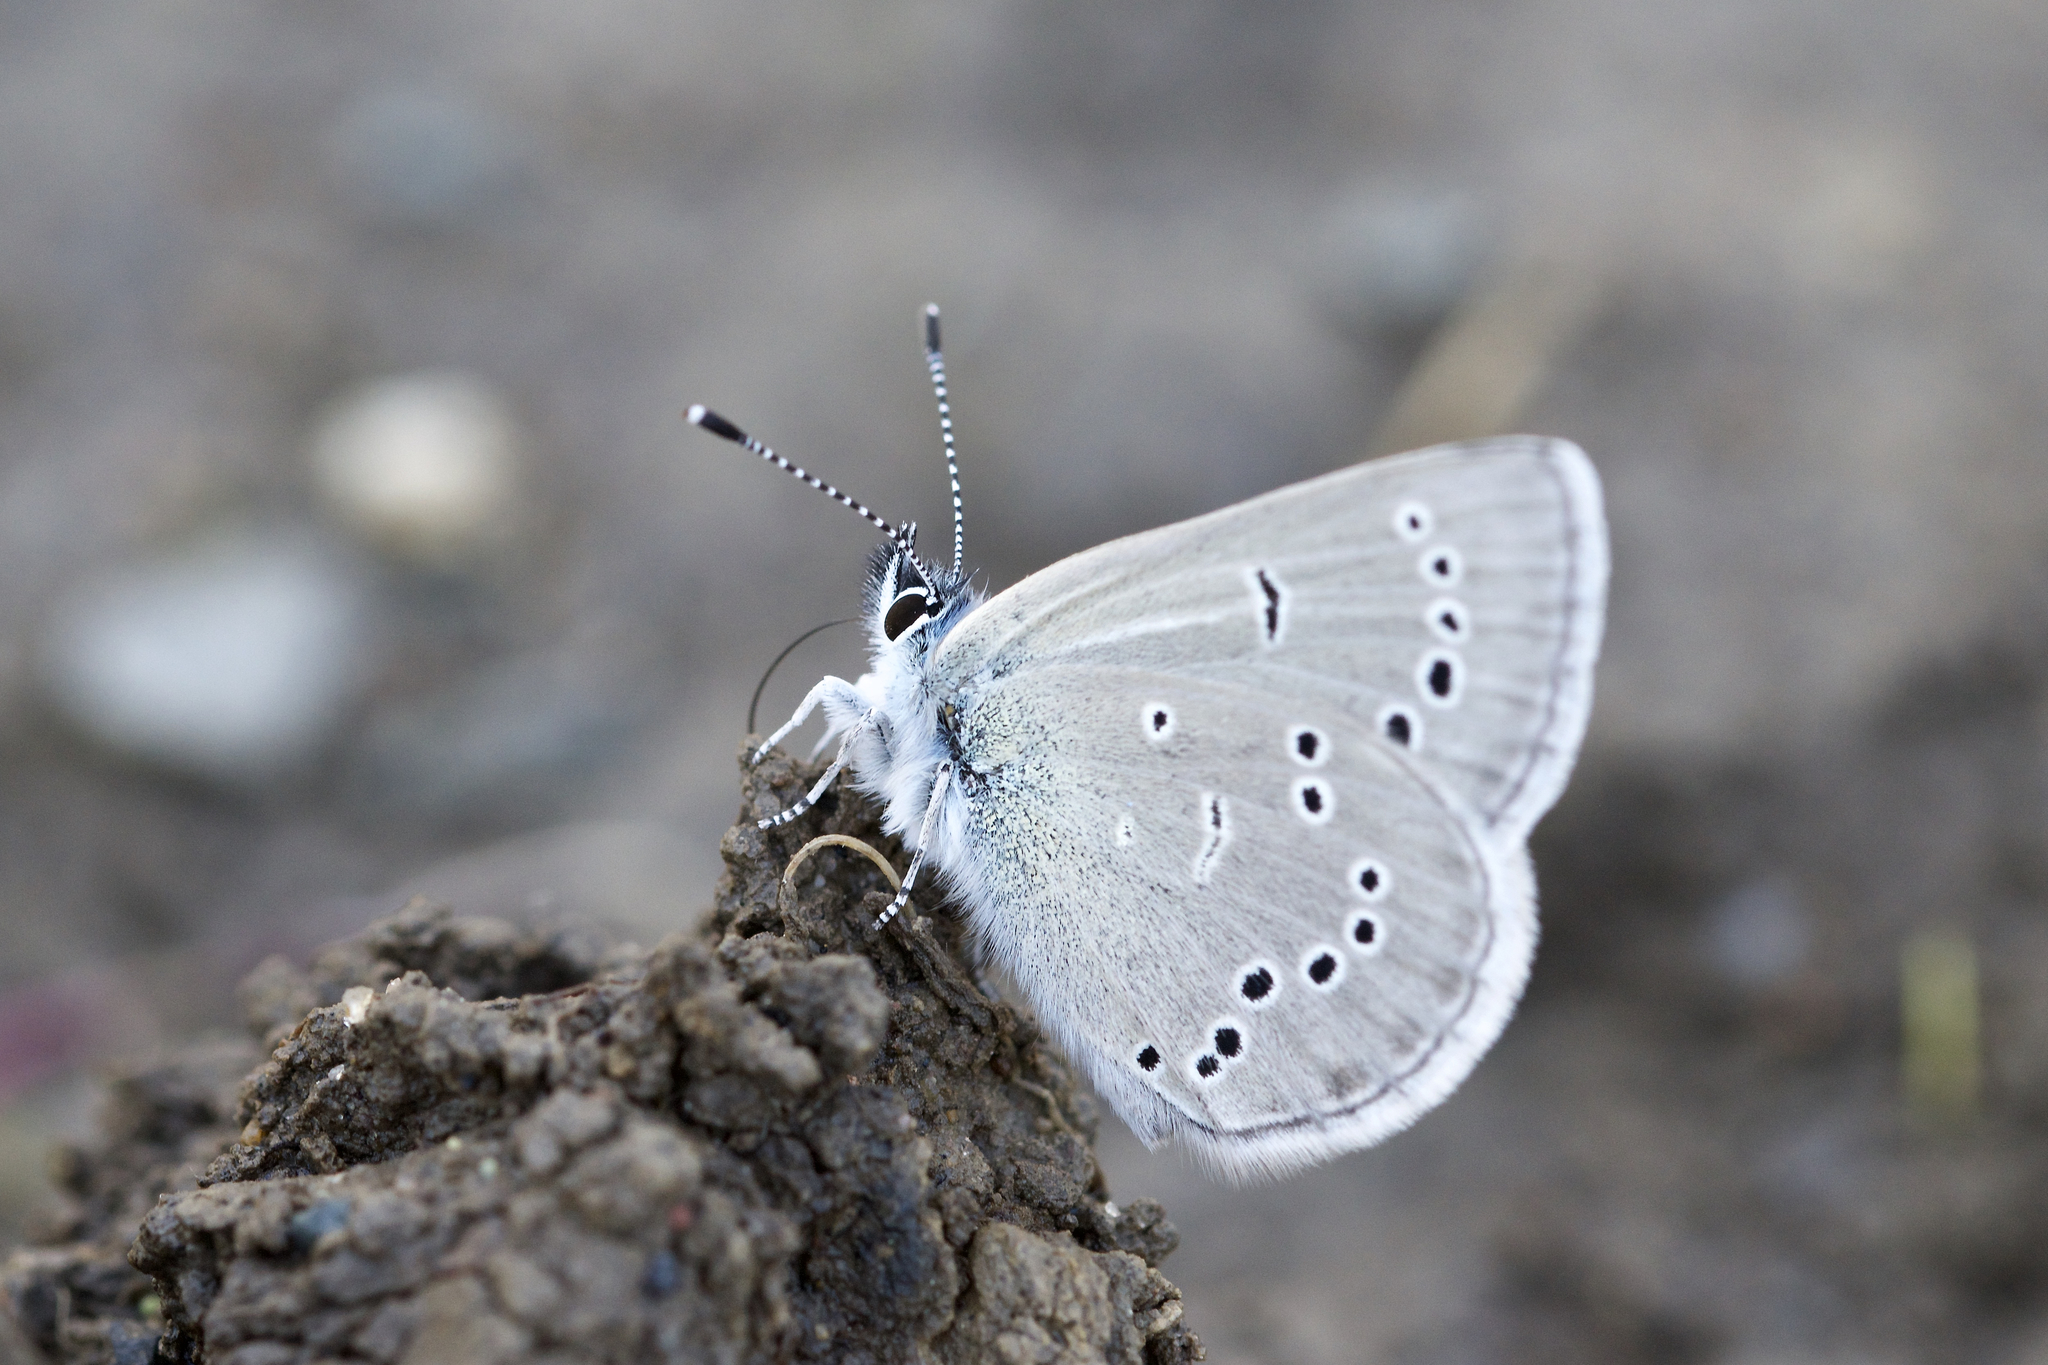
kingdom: Animalia
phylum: Arthropoda
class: Insecta
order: Lepidoptera
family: Lycaenidae
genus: Glaucopsyche
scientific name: Glaucopsyche lygdamus
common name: Silvery blue
